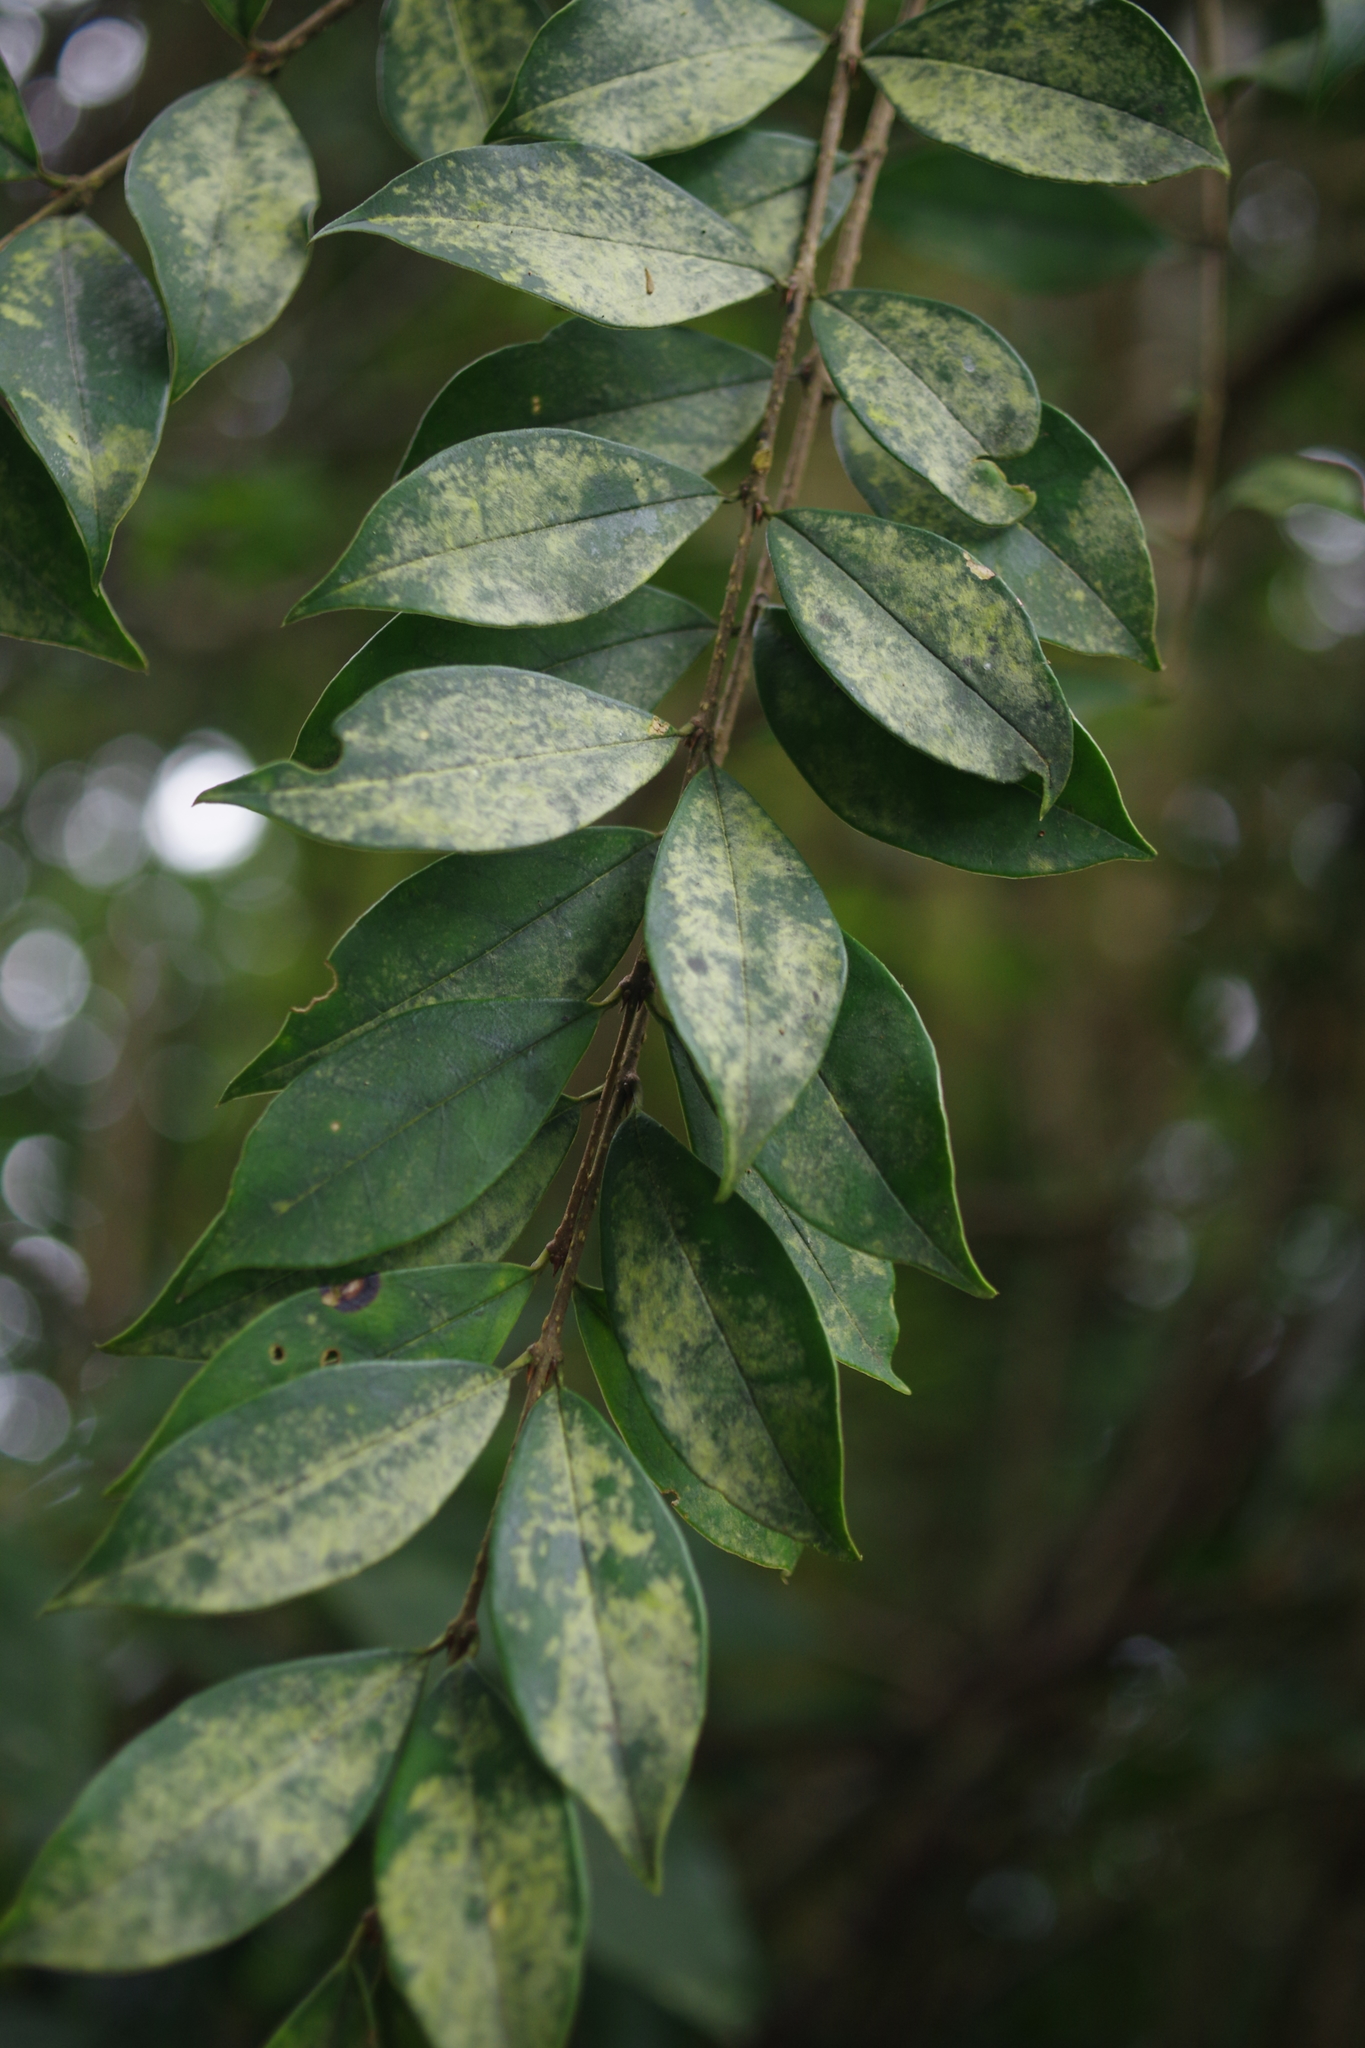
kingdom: Plantae
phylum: Tracheophyta
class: Magnoliopsida
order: Lamiales
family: Oleaceae
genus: Ligustrum
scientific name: Ligustrum pricei
